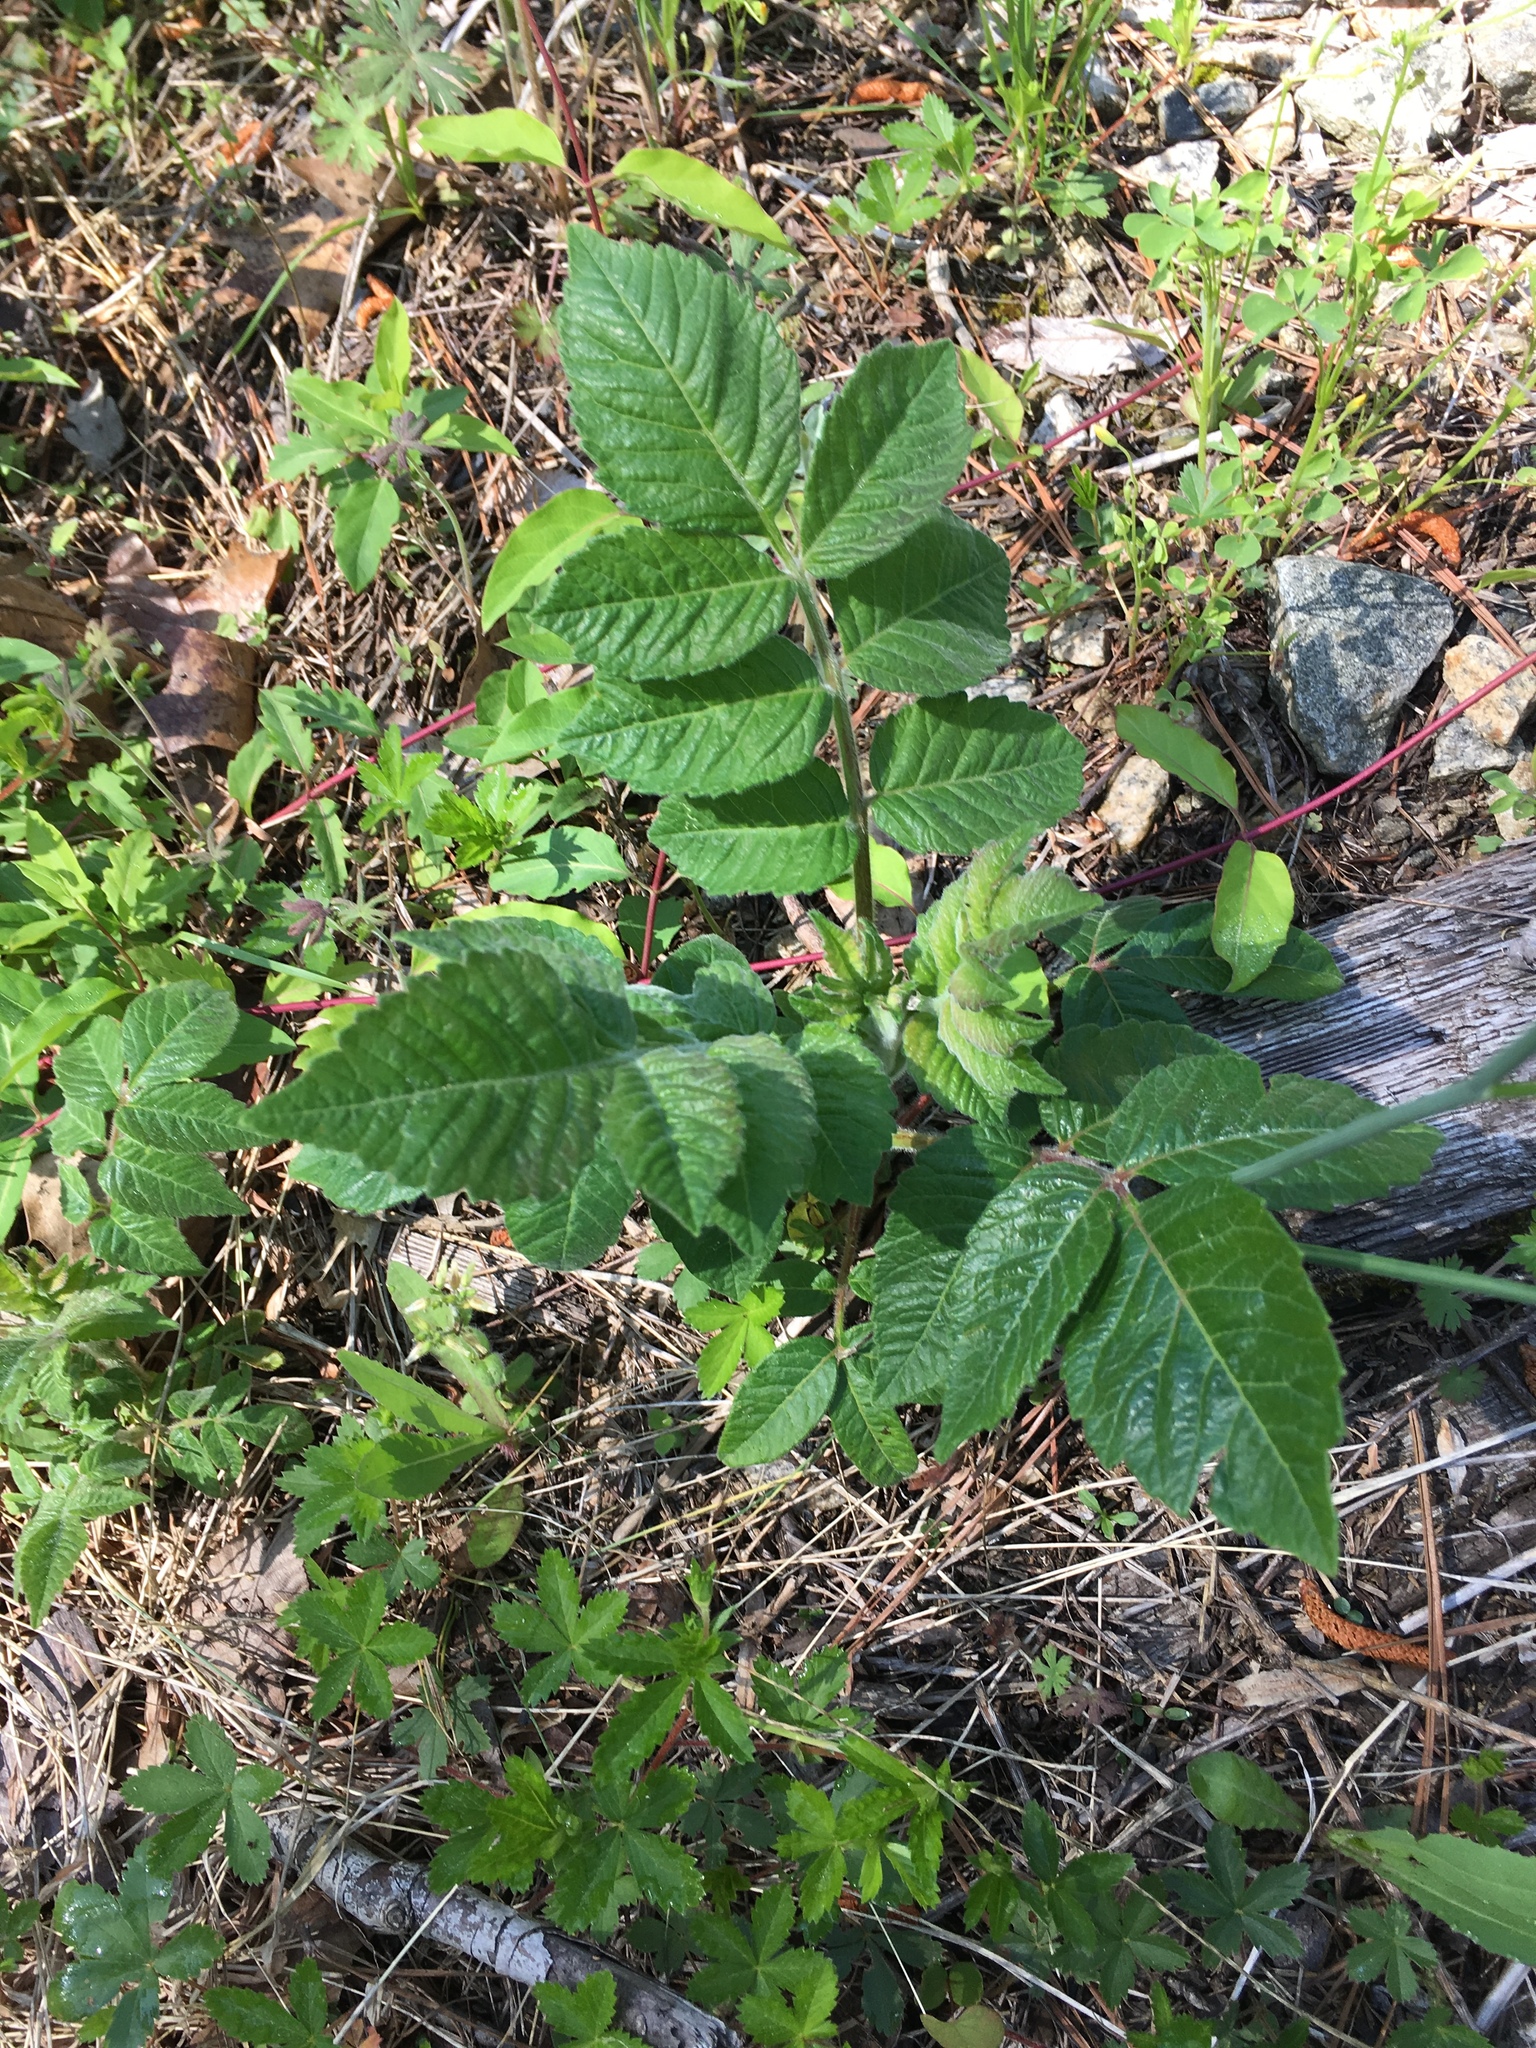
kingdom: Plantae
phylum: Tracheophyta
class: Magnoliopsida
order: Sapindales
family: Anacardiaceae
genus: Rhus
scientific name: Rhus michauxii
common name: Michaux's sumac
